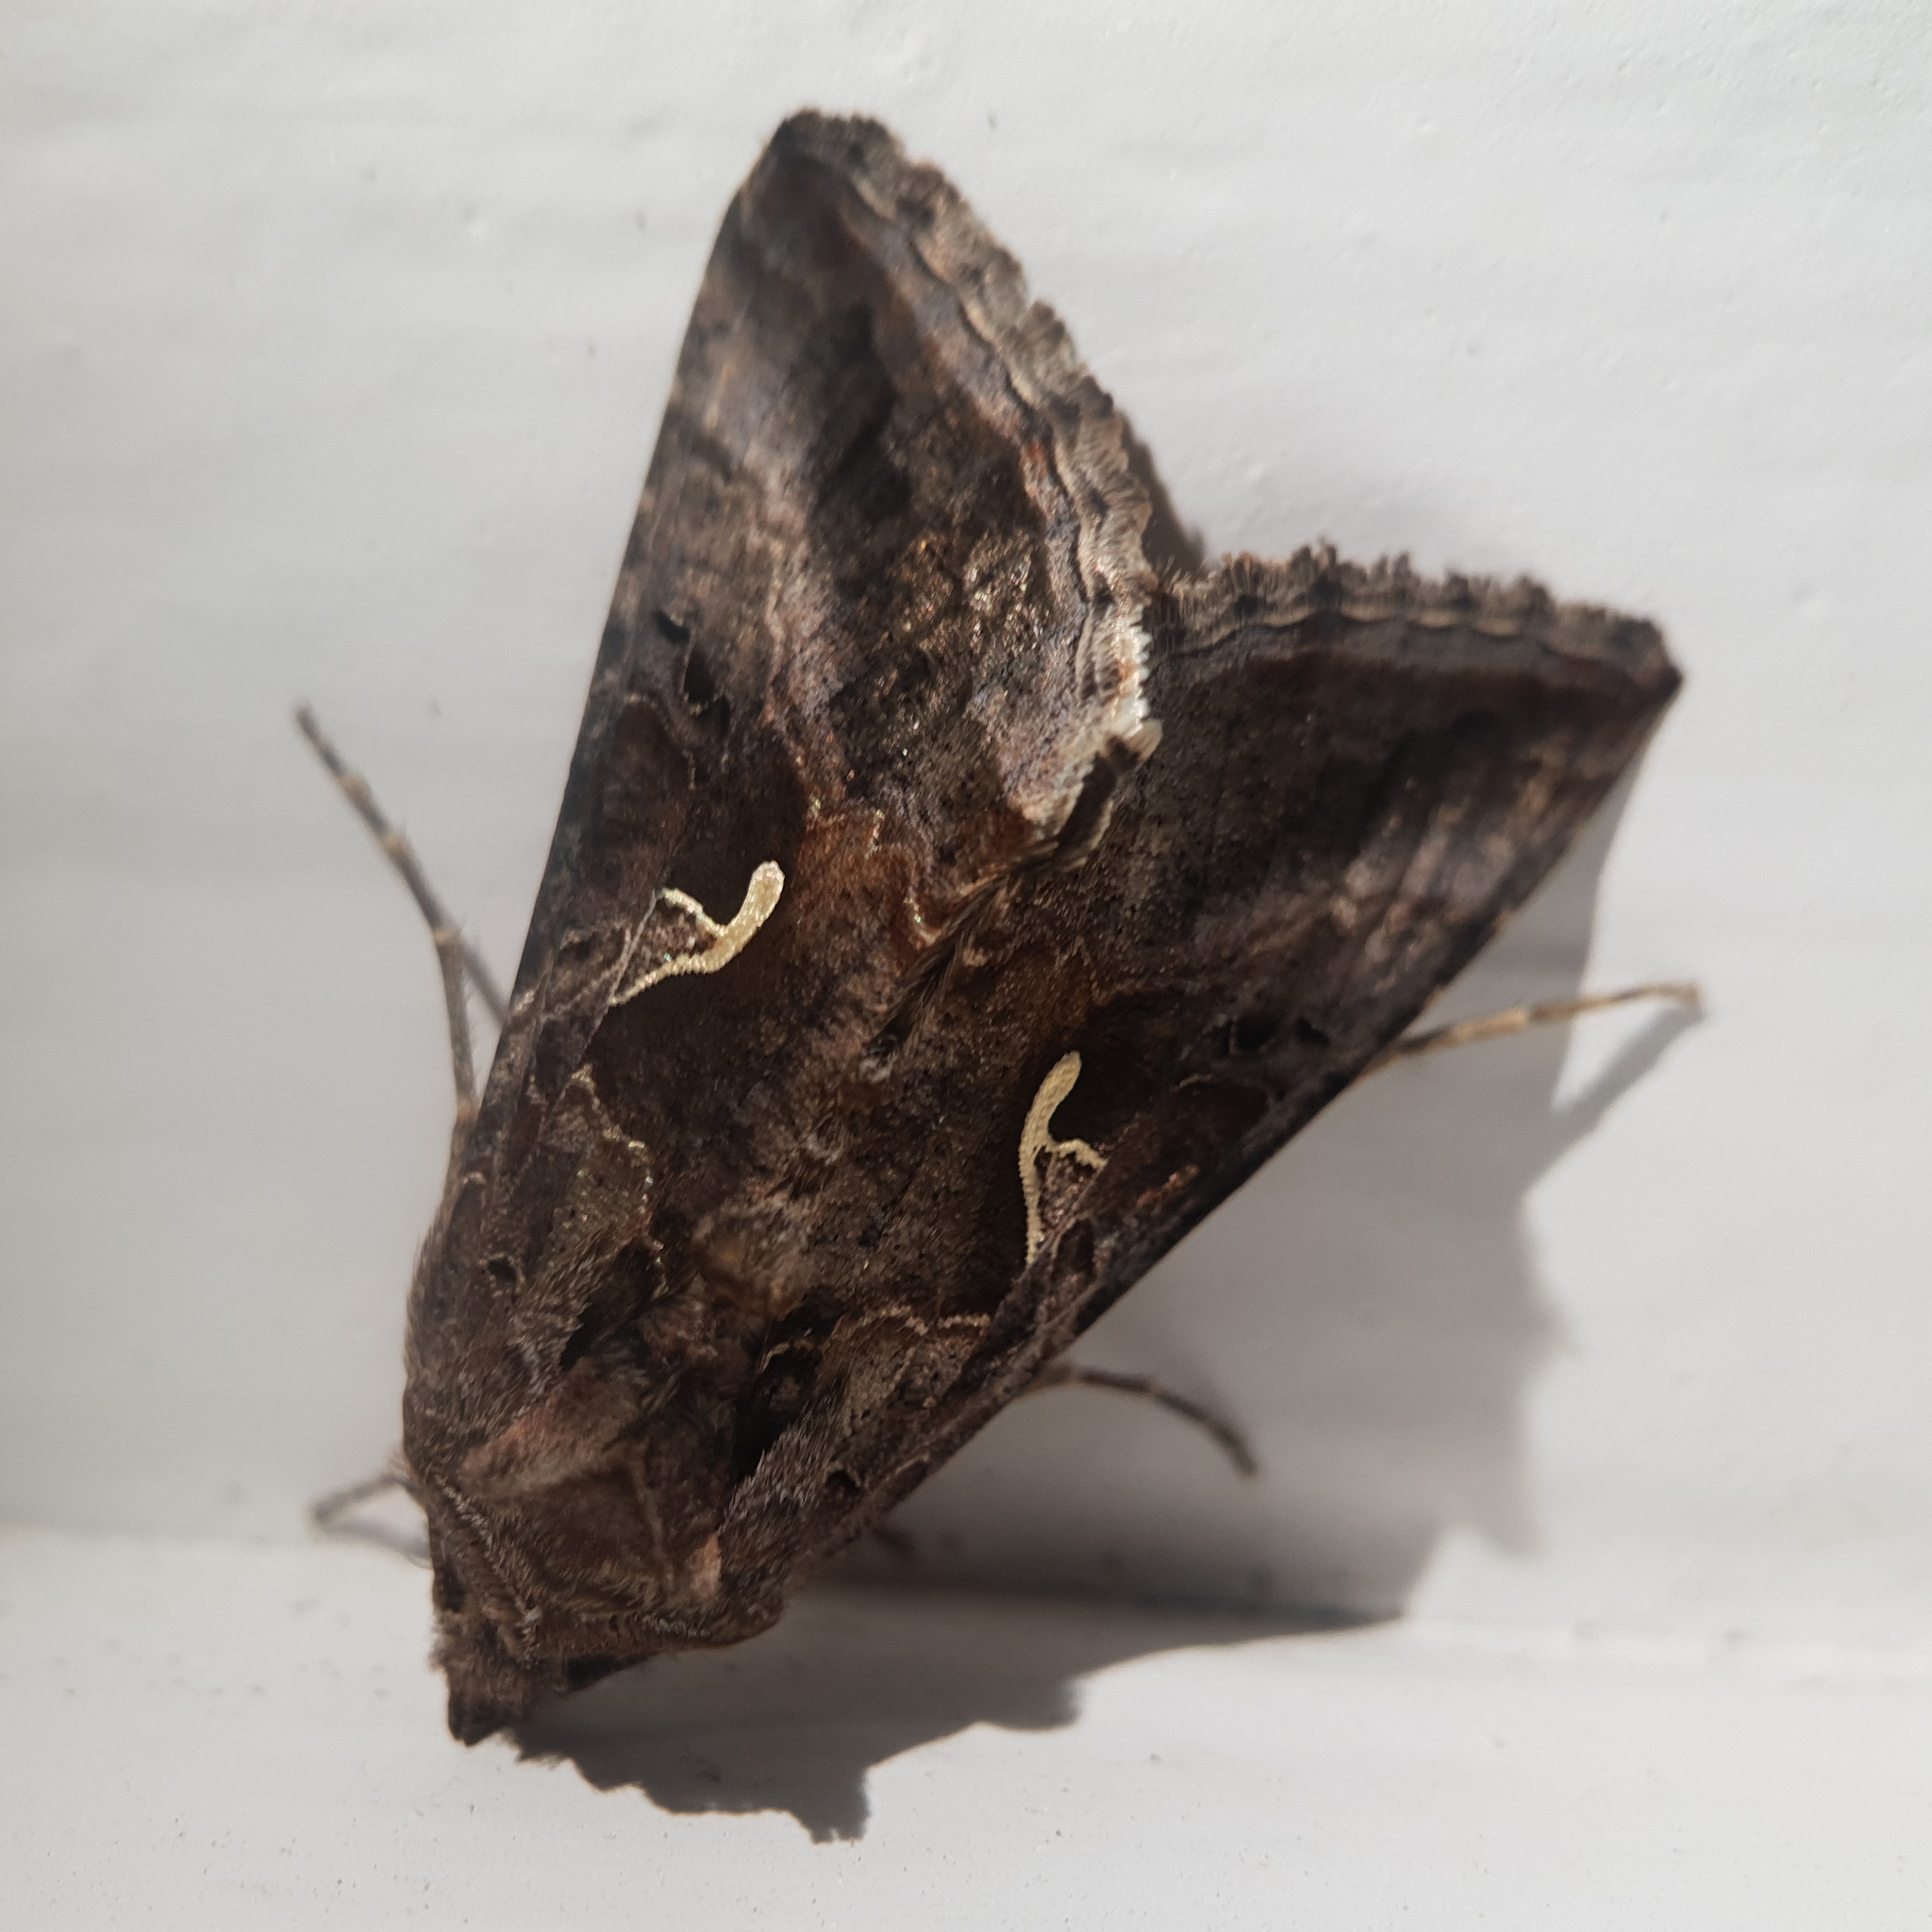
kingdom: Animalia
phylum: Arthropoda
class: Insecta
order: Lepidoptera
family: Noctuidae
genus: Autographa
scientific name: Autographa gamma
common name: Silver y
